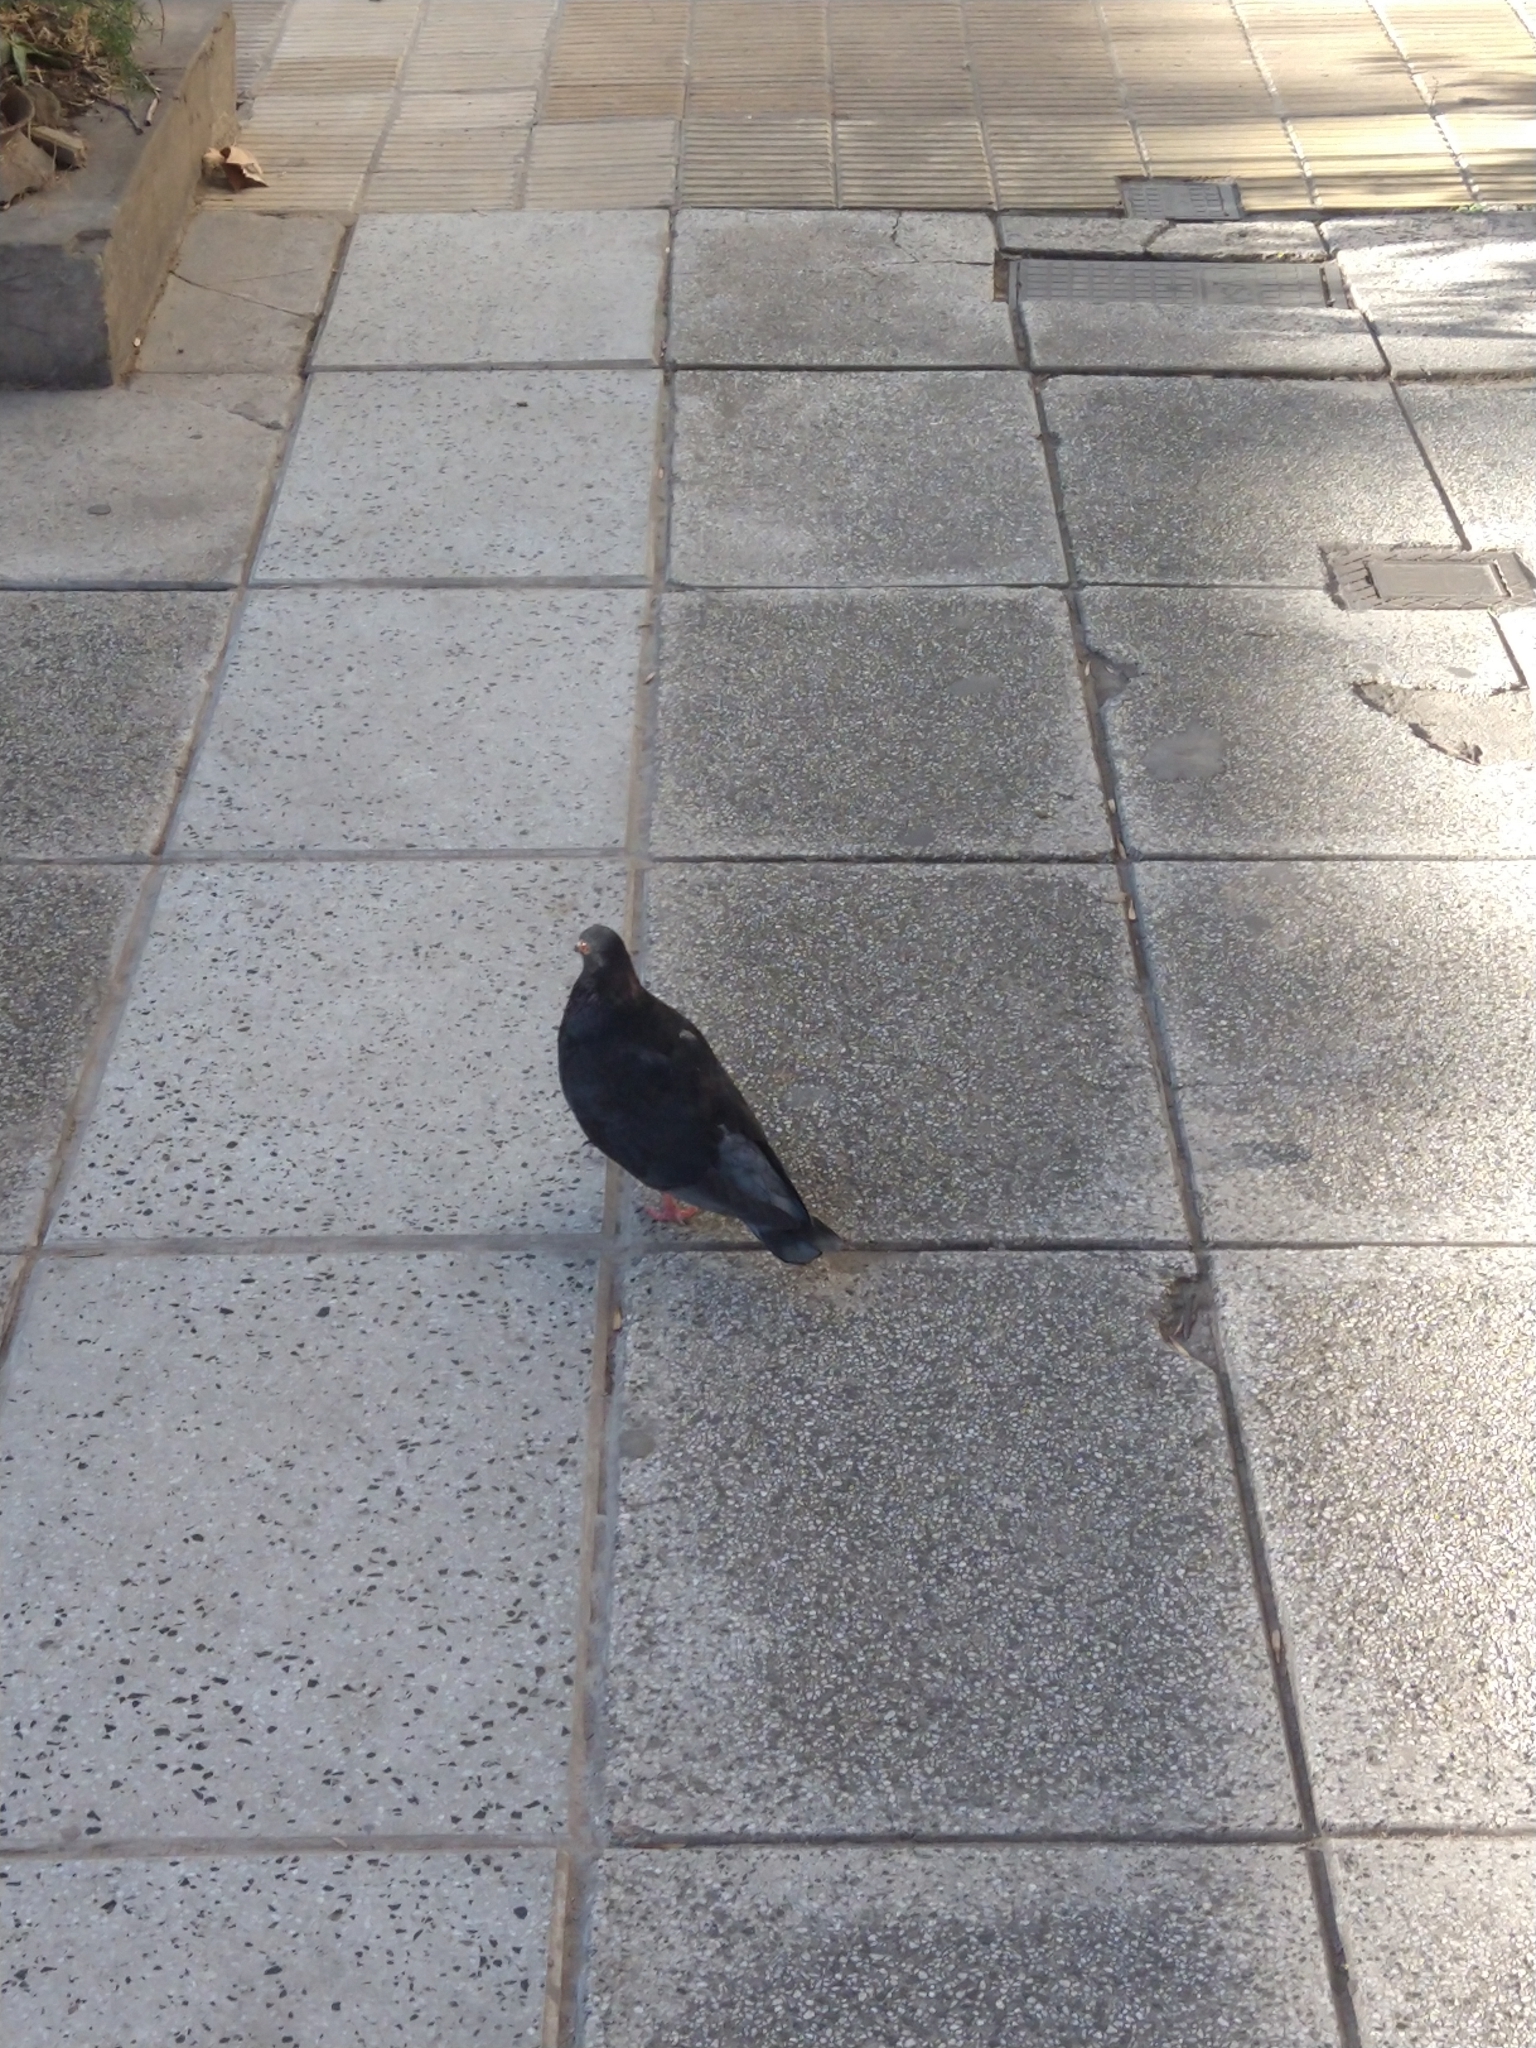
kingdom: Animalia
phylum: Chordata
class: Aves
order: Columbiformes
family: Columbidae
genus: Columba
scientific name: Columba livia
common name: Rock pigeon
